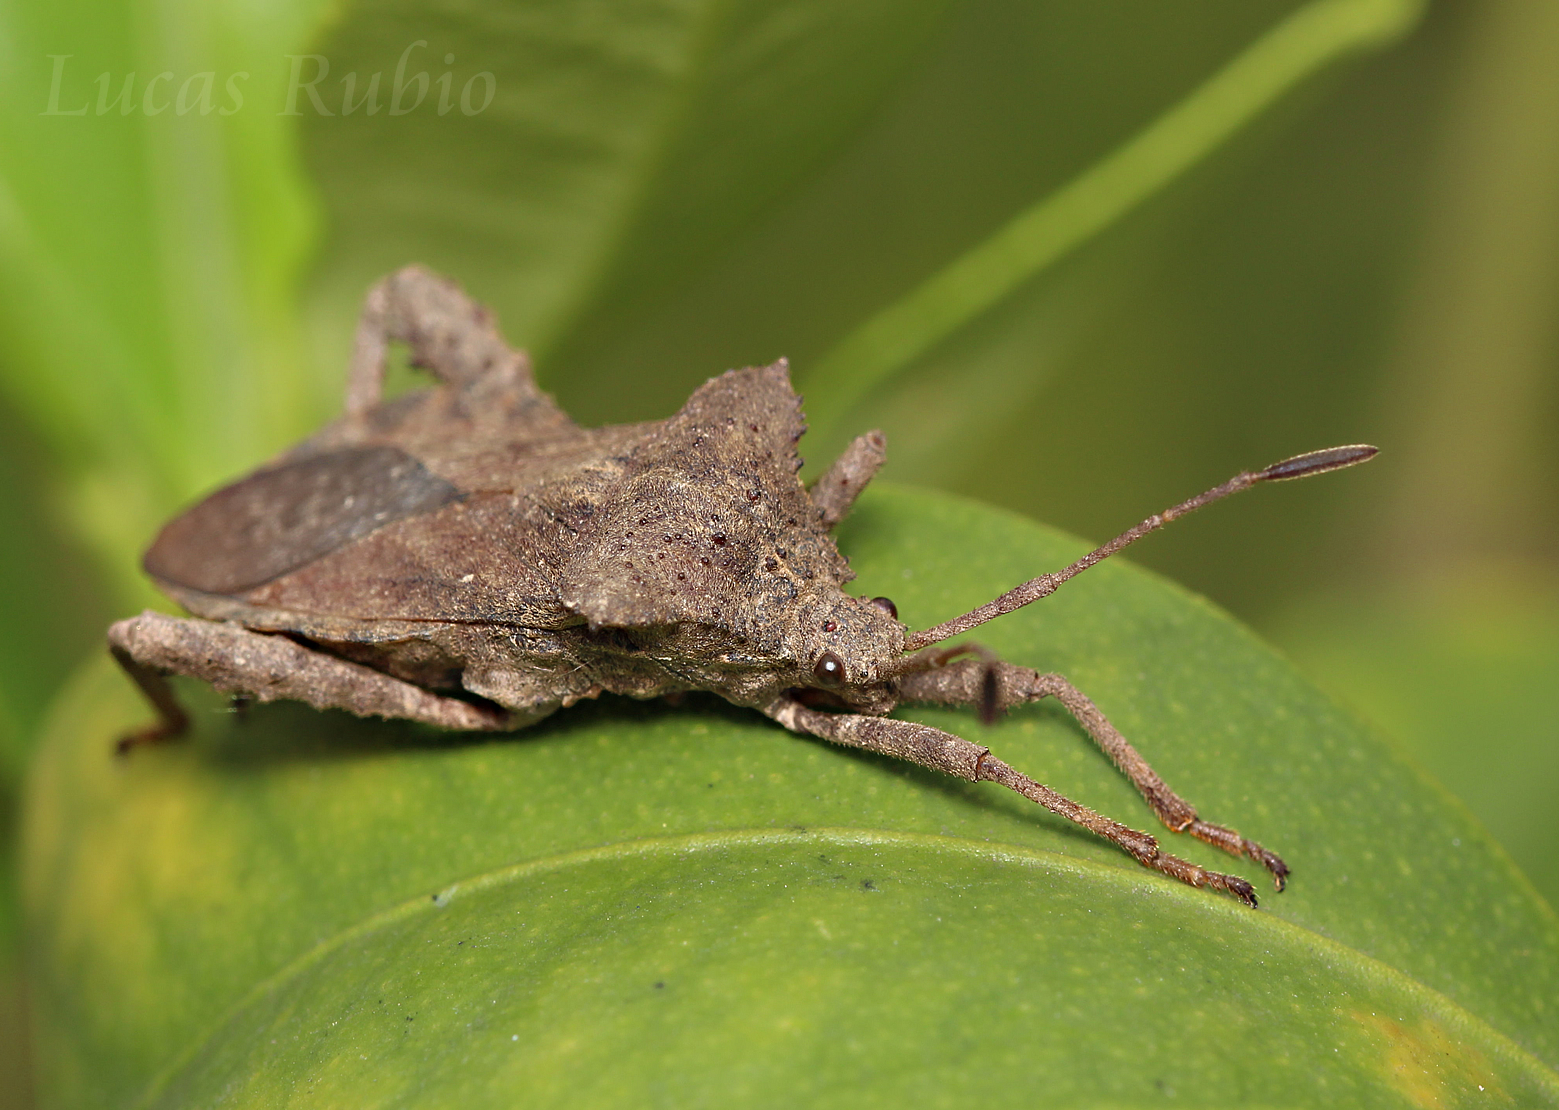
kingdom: Animalia
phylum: Arthropoda
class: Insecta
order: Hemiptera
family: Coreidae
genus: Camptischium
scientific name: Camptischium clavipes
